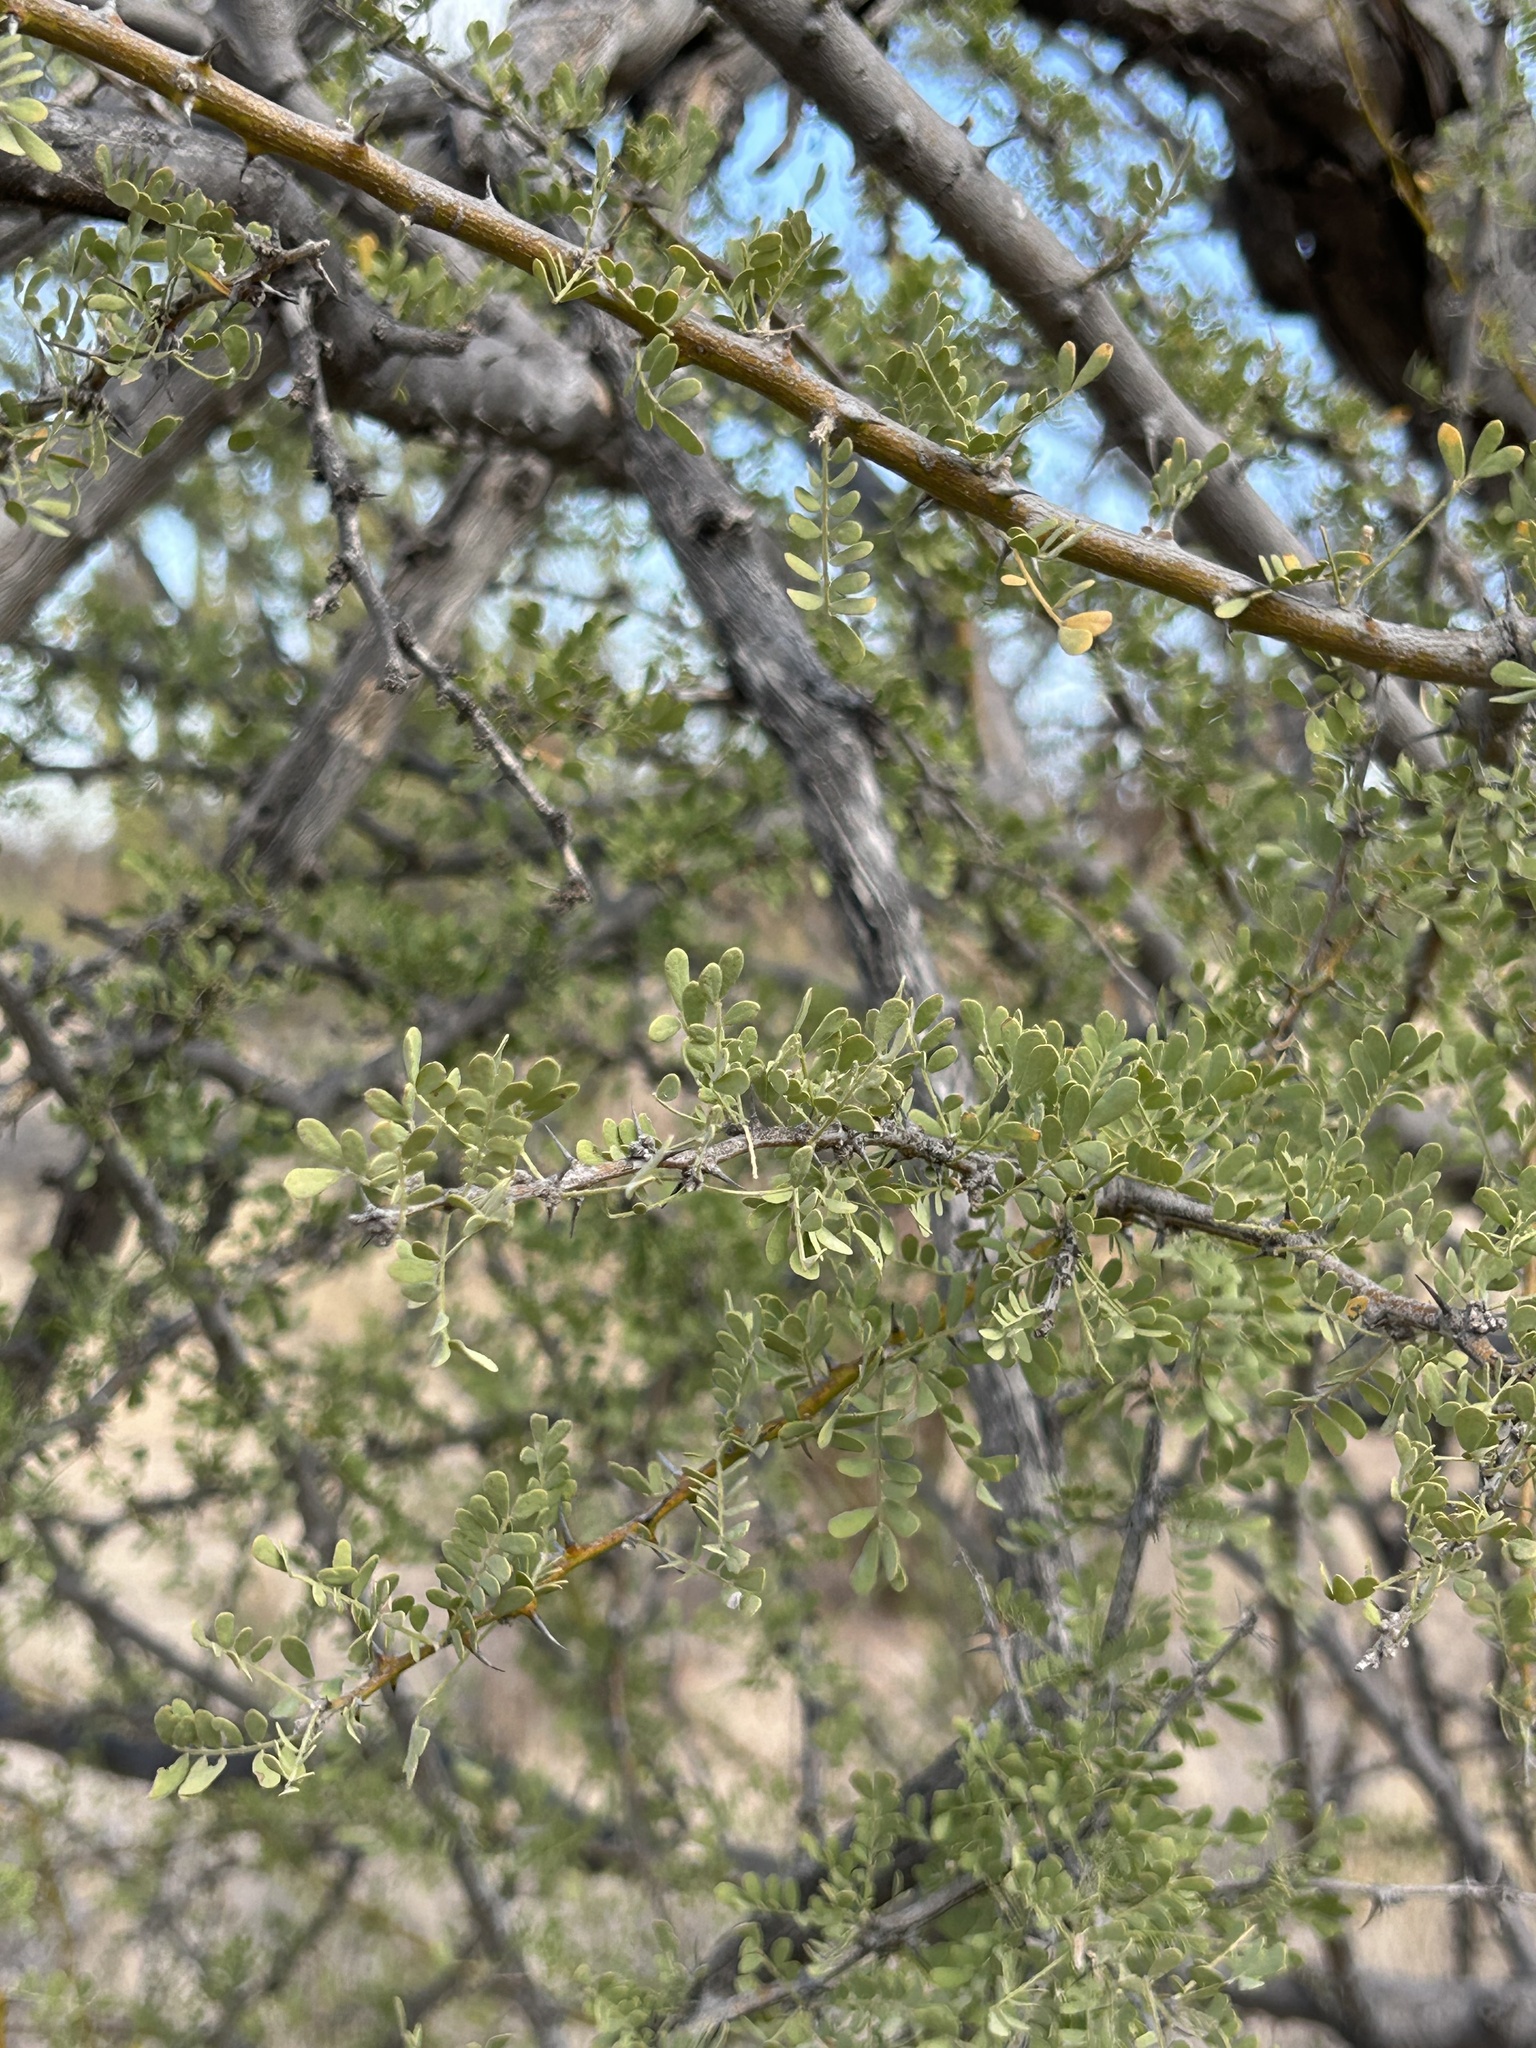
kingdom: Plantae
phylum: Tracheophyta
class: Magnoliopsida
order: Fabales
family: Fabaceae
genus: Olneya
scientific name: Olneya tesota
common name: Desert ironwood
